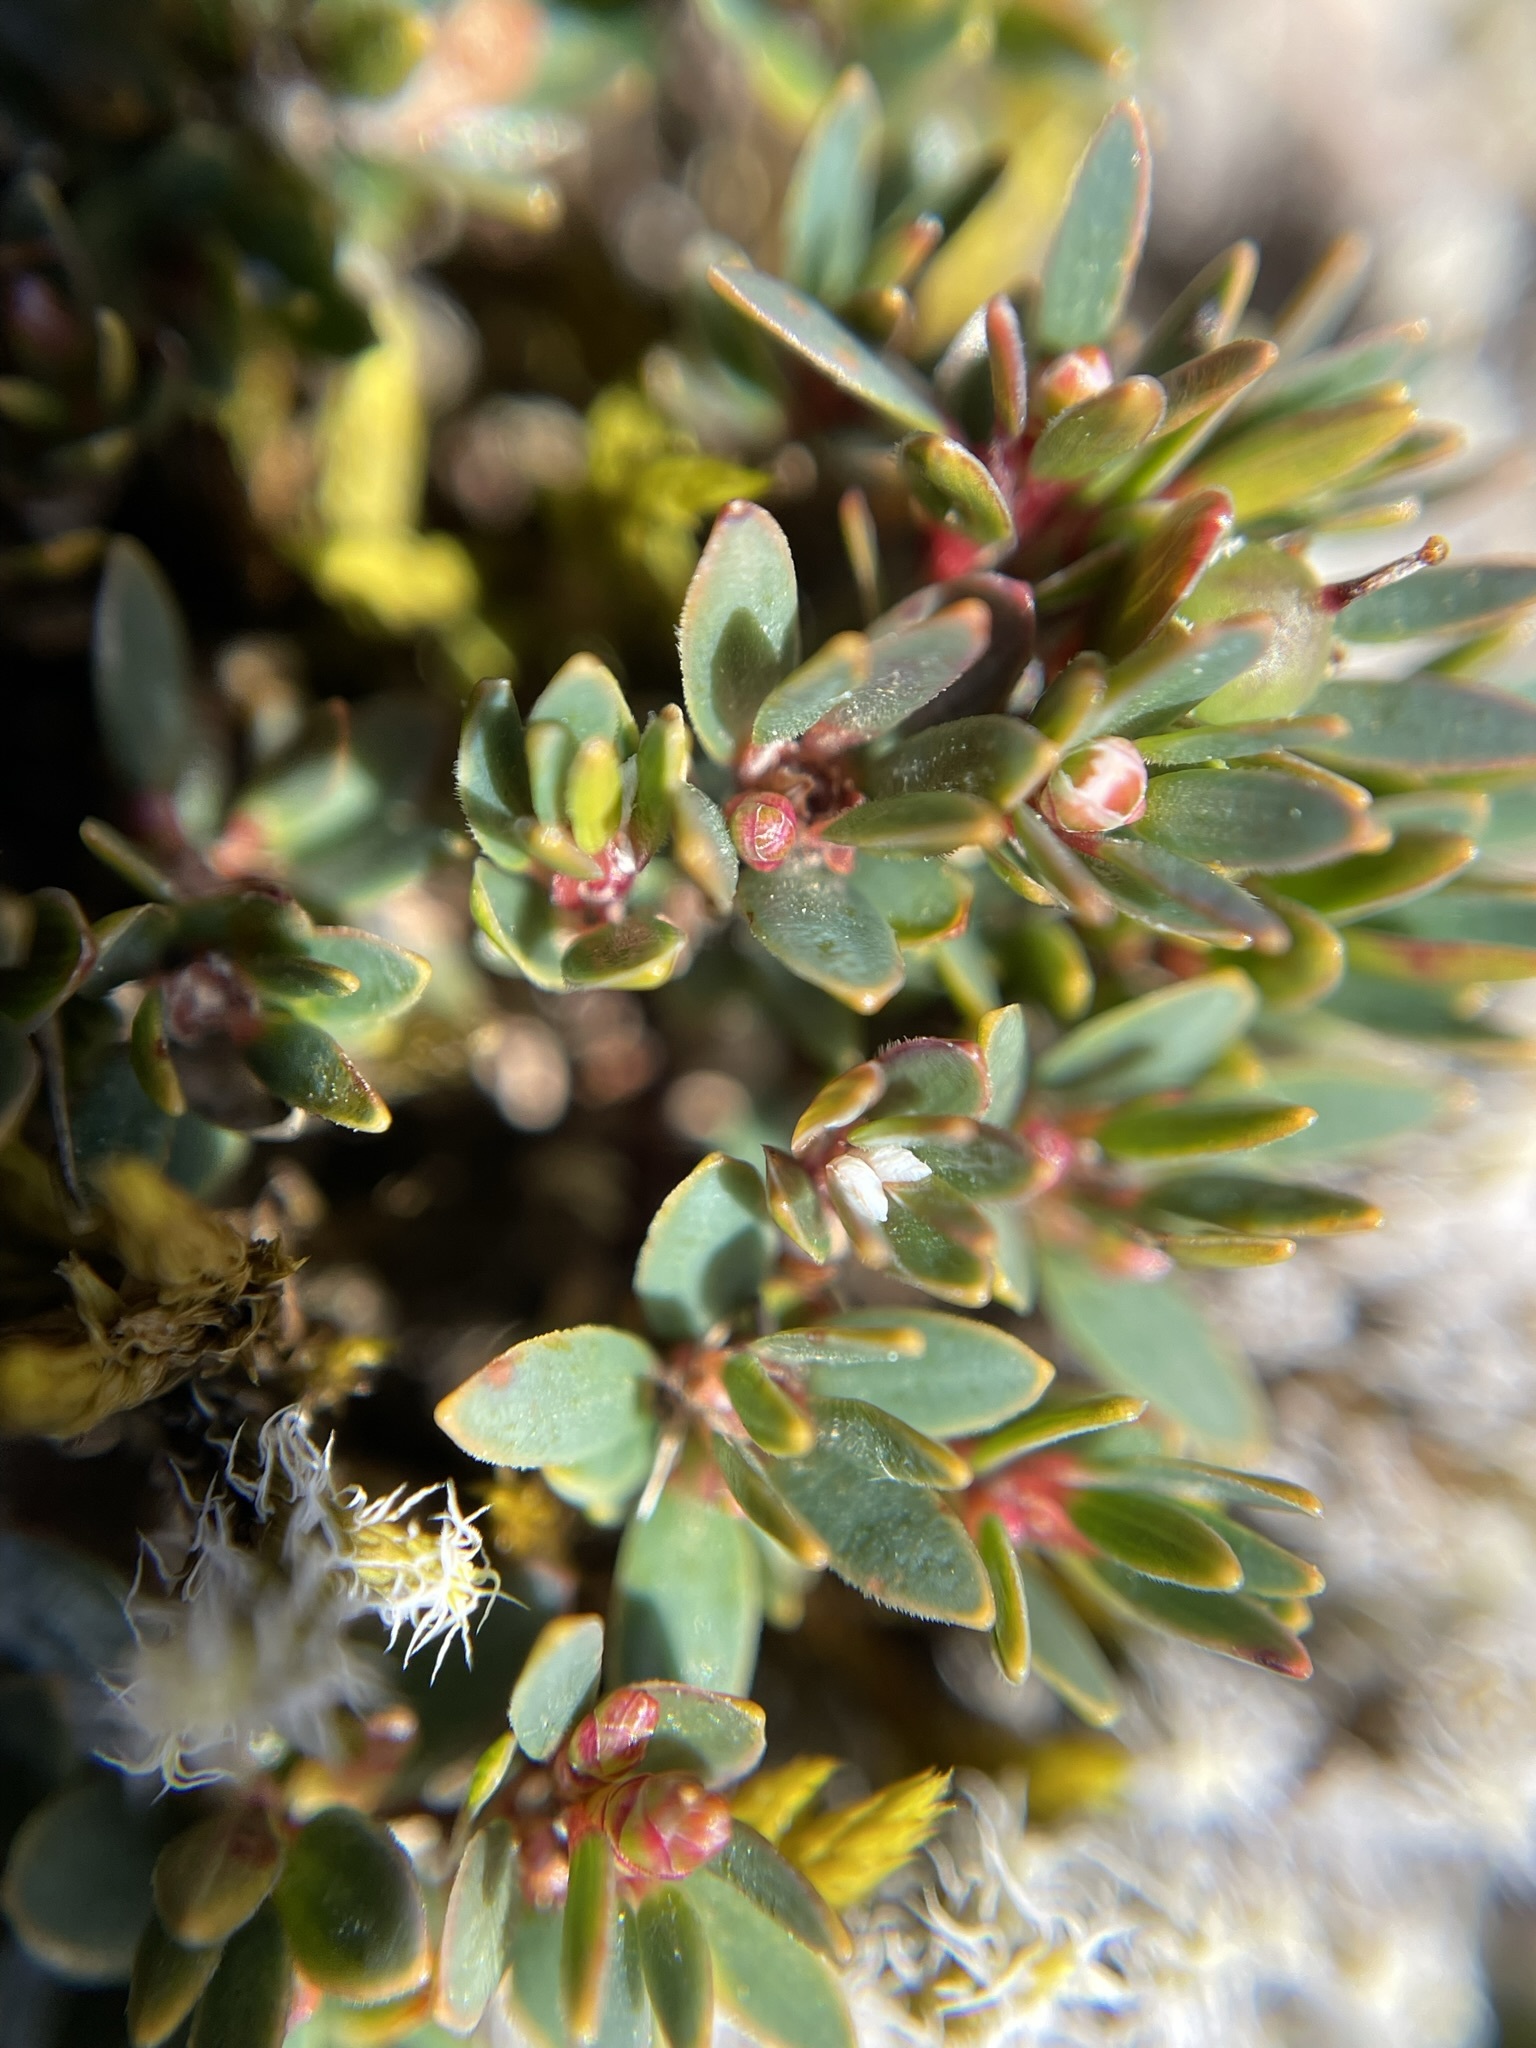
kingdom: Plantae
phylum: Tracheophyta
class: Magnoliopsida
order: Ericales
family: Ericaceae
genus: Pentachondra
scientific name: Pentachondra pumila
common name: Carpet-heath
